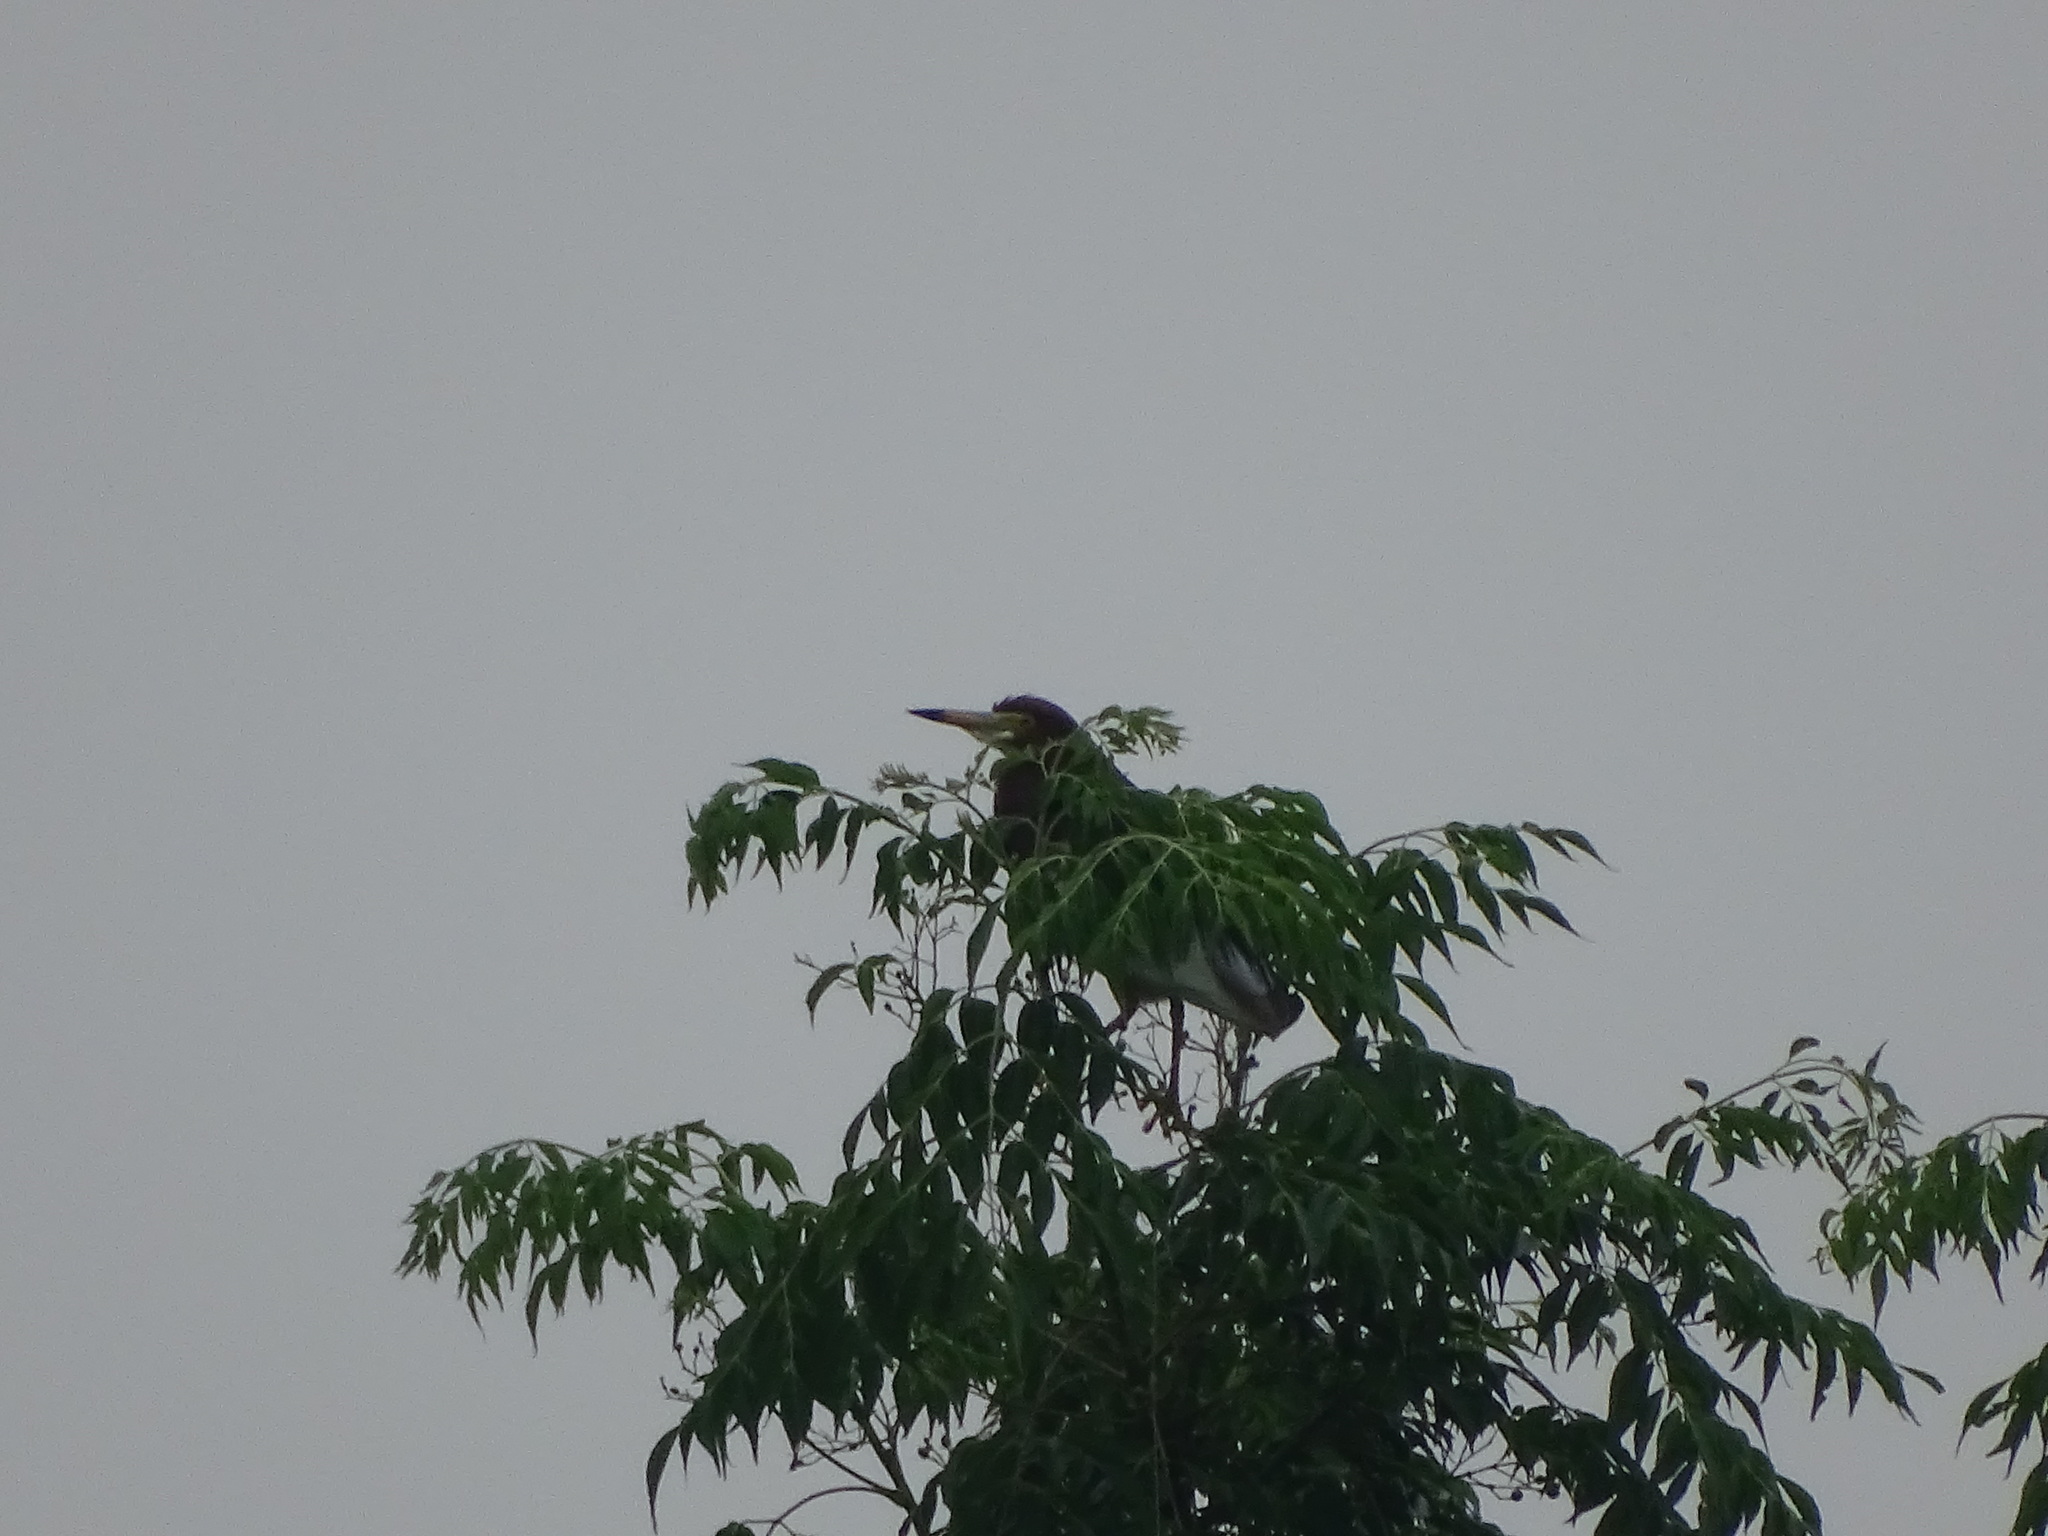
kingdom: Animalia
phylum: Chordata
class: Aves
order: Pelecaniformes
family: Ardeidae
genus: Ardeola
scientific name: Ardeola bacchus
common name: Chinese pond heron
